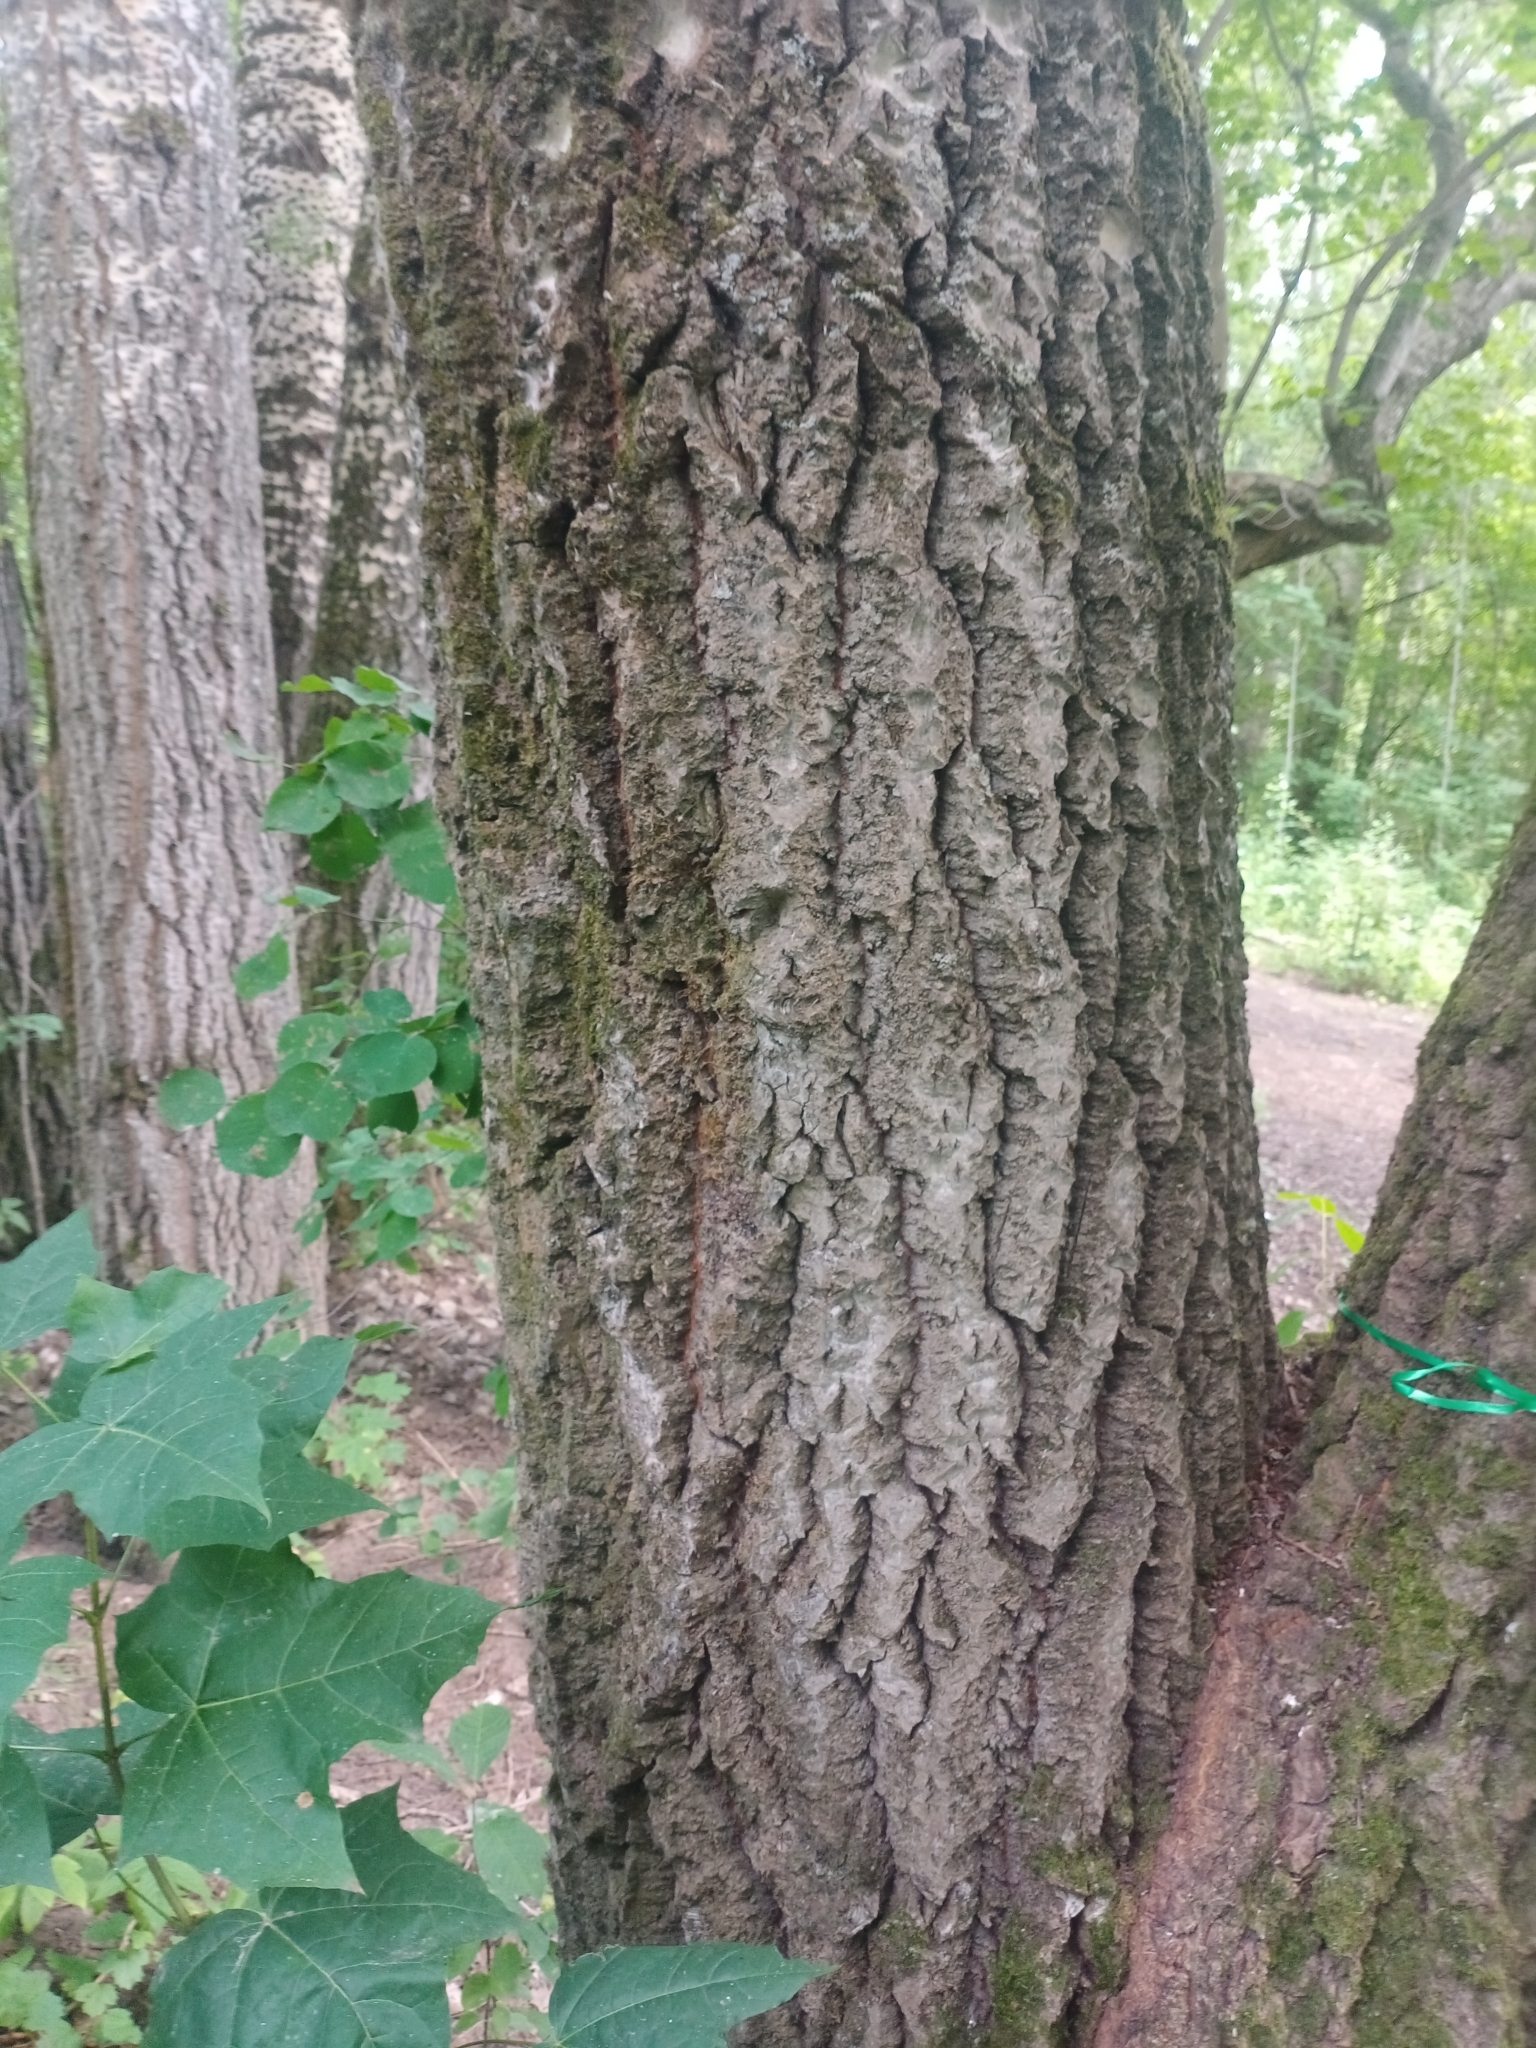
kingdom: Plantae
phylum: Tracheophyta
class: Magnoliopsida
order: Sapindales
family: Sapindaceae
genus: Acer
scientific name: Acer platanoides
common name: Norway maple
